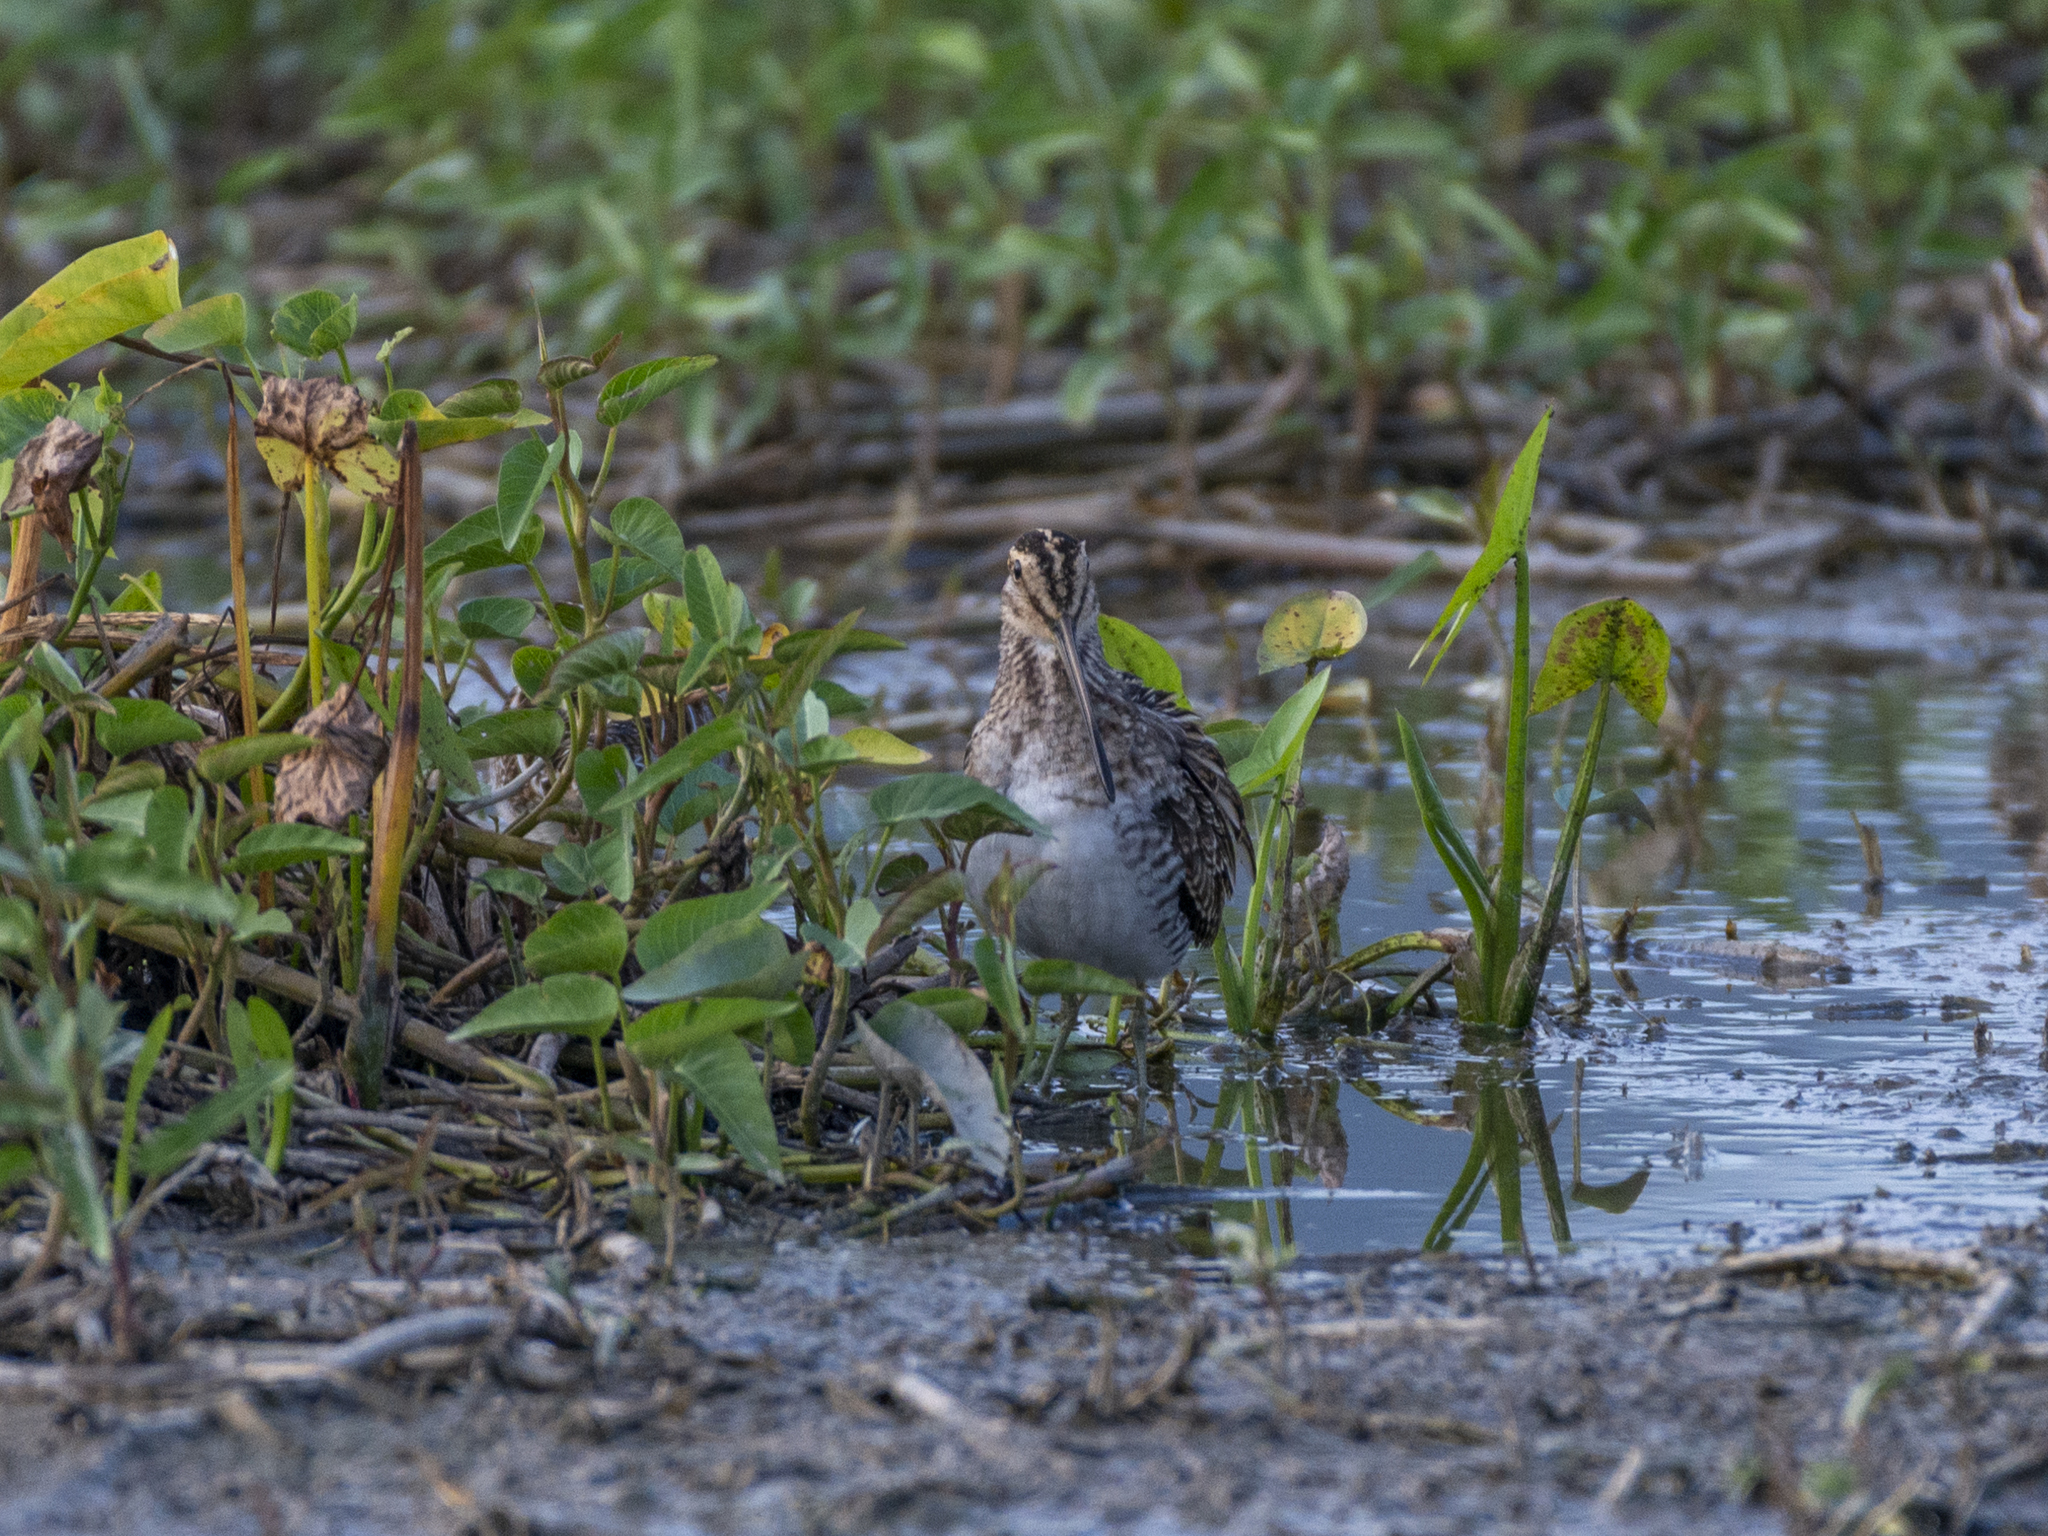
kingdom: Animalia
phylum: Chordata
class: Aves
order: Charadriiformes
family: Scolopacidae
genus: Gallinago
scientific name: Gallinago gallinago
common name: Common snipe
